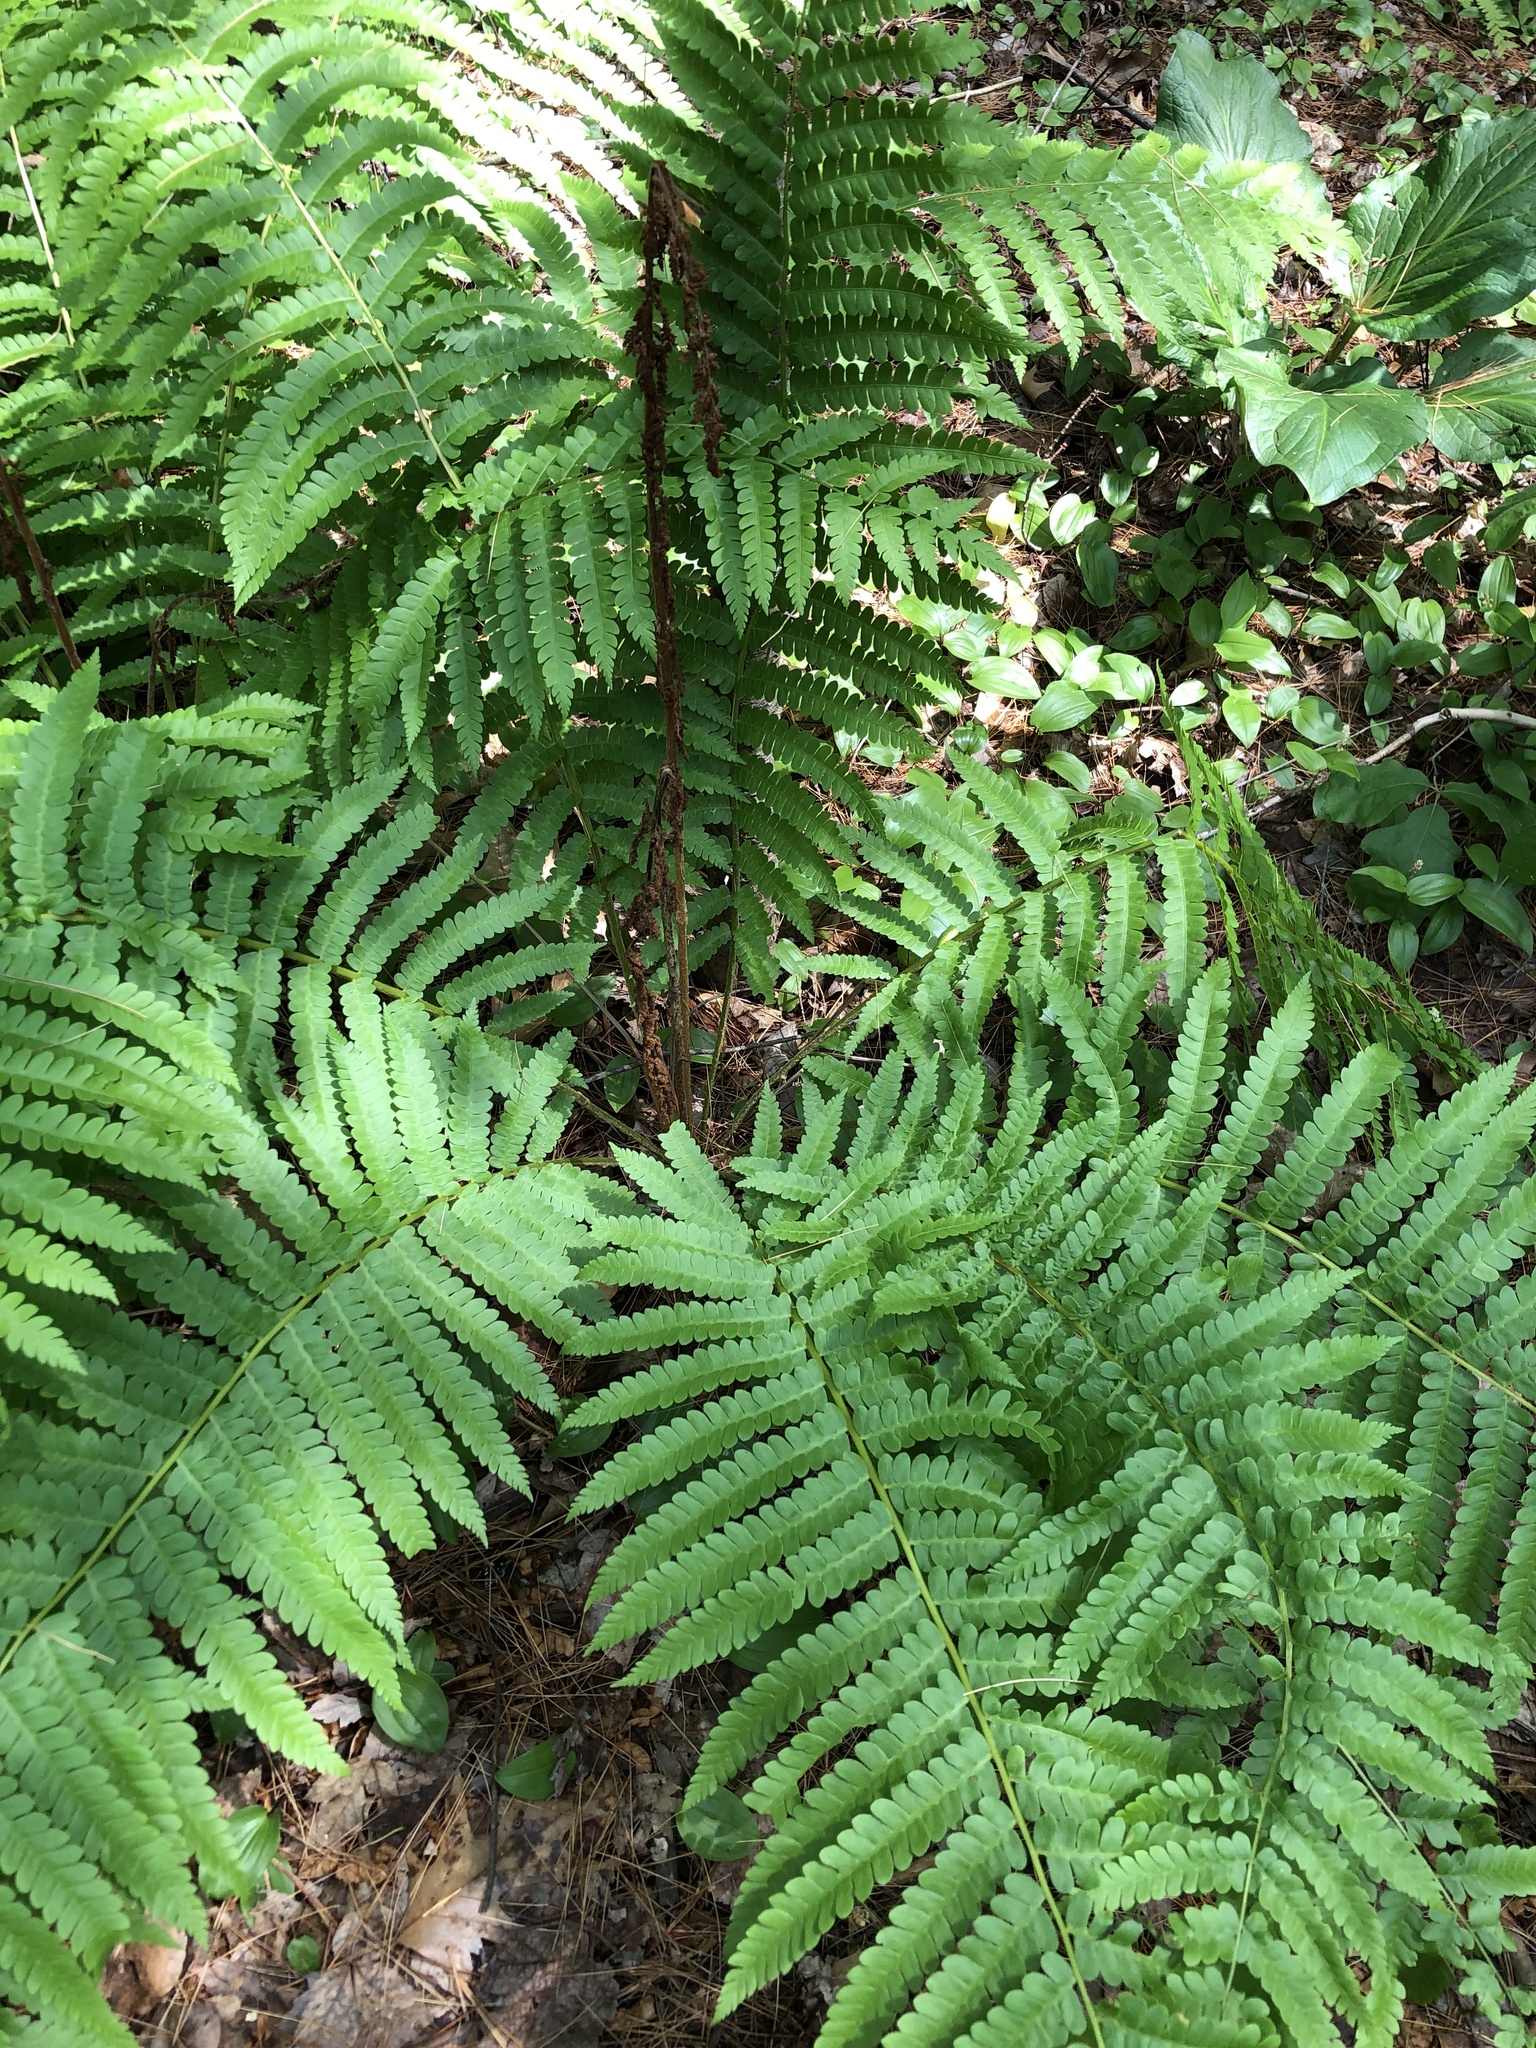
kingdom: Plantae
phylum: Tracheophyta
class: Polypodiopsida
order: Osmundales
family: Osmundaceae
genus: Osmundastrum
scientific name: Osmundastrum cinnamomeum
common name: Cinnamon fern
